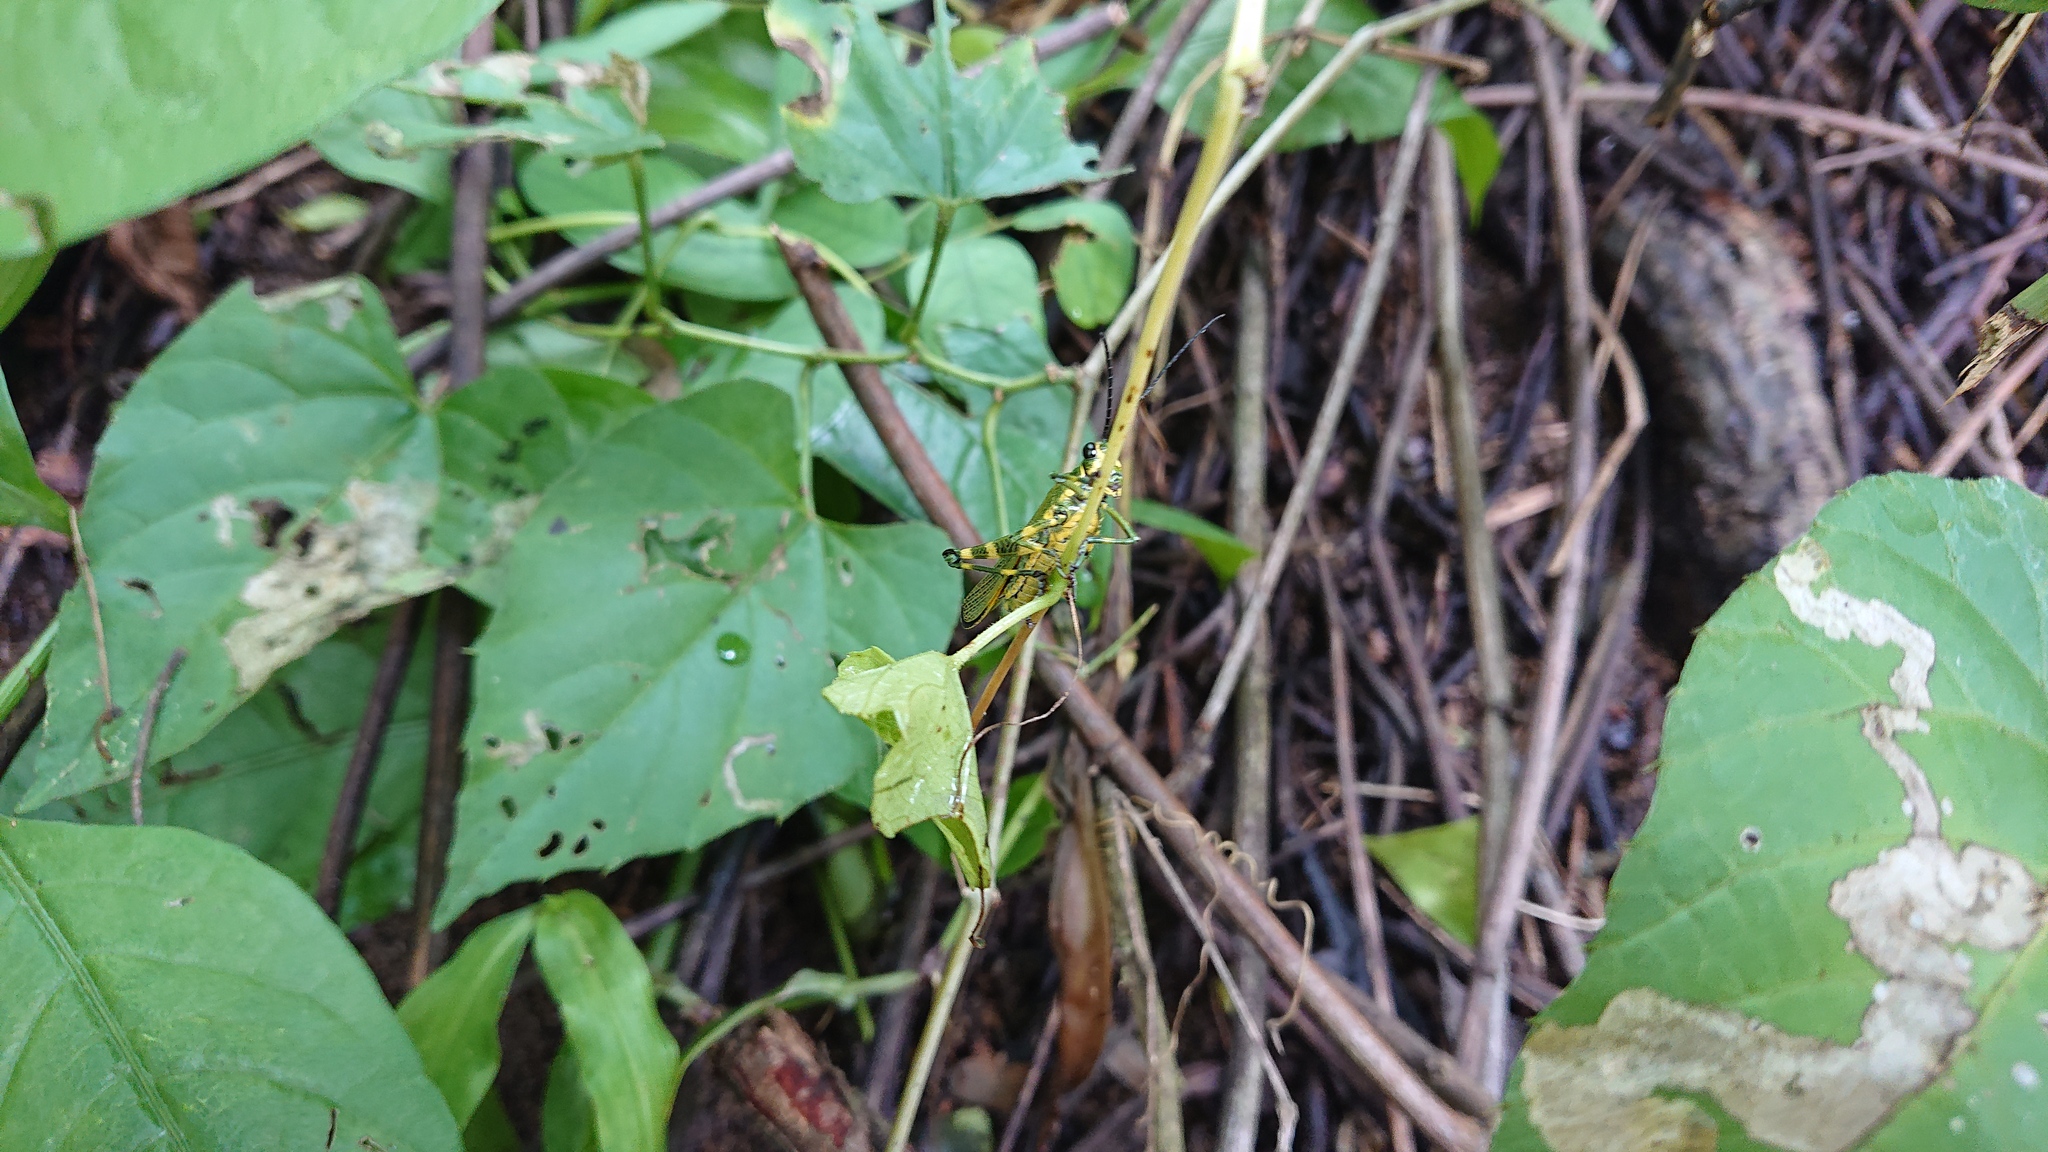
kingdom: Animalia
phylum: Arthropoda
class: Insecta
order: Orthoptera
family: Romaleidae
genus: Chromacris
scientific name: Chromacris psittacus
